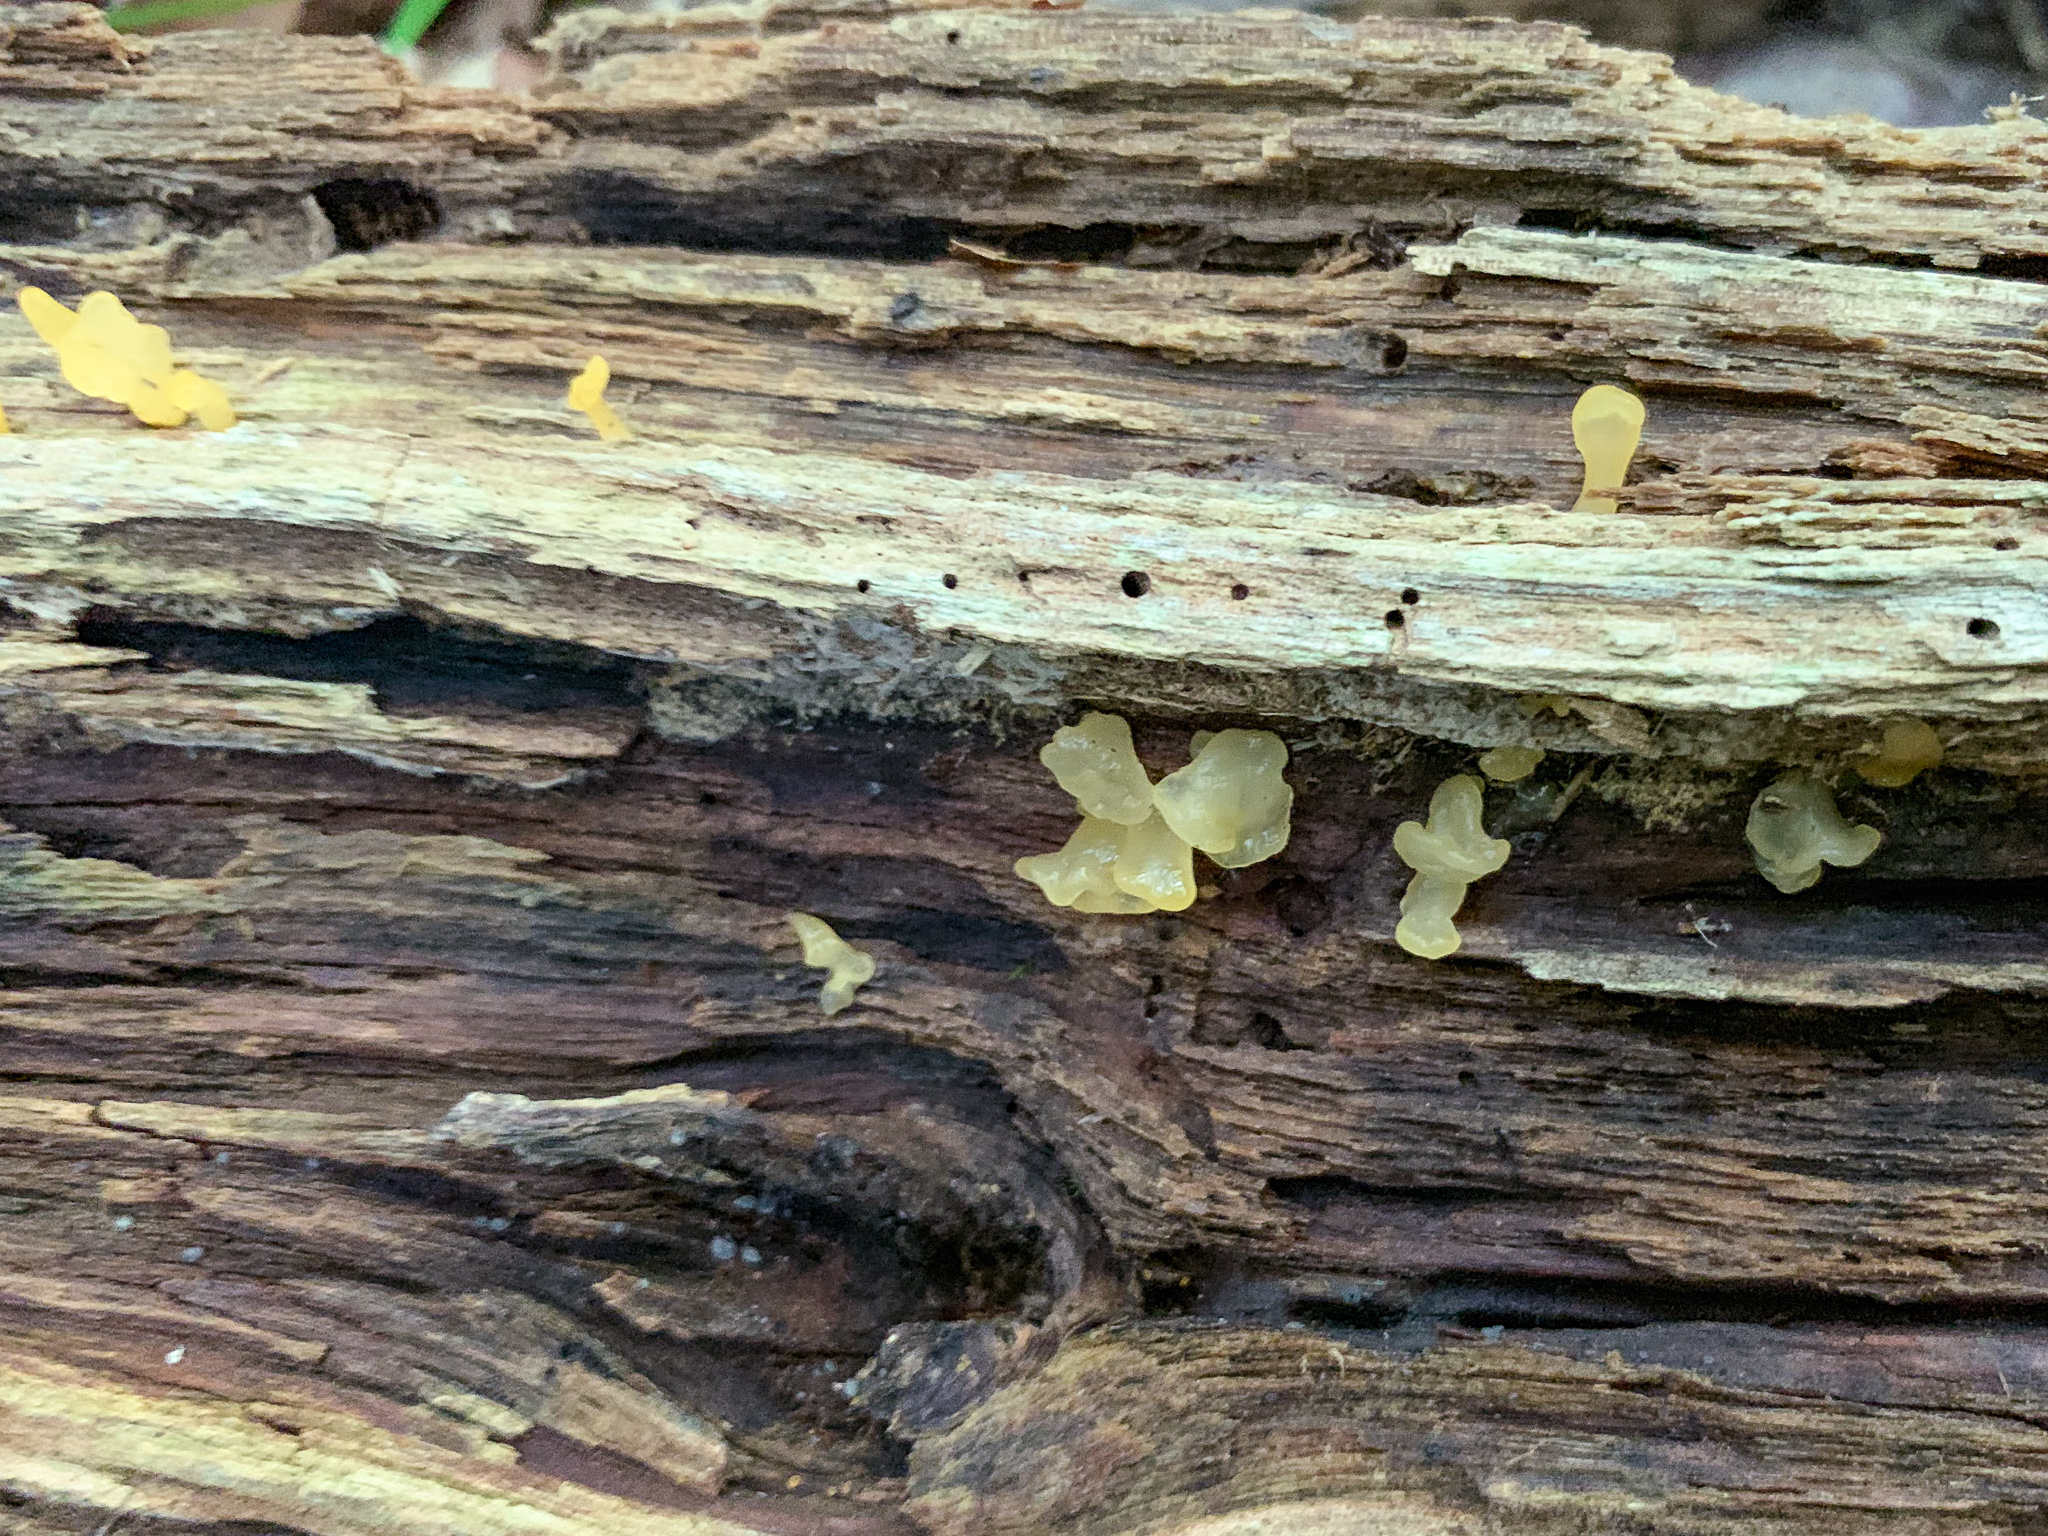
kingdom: Fungi
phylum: Basidiomycota
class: Dacrymycetes
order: Dacrymycetales
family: Dacrymycetaceae
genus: Dacrymyces
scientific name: Dacrymyces spathularius
